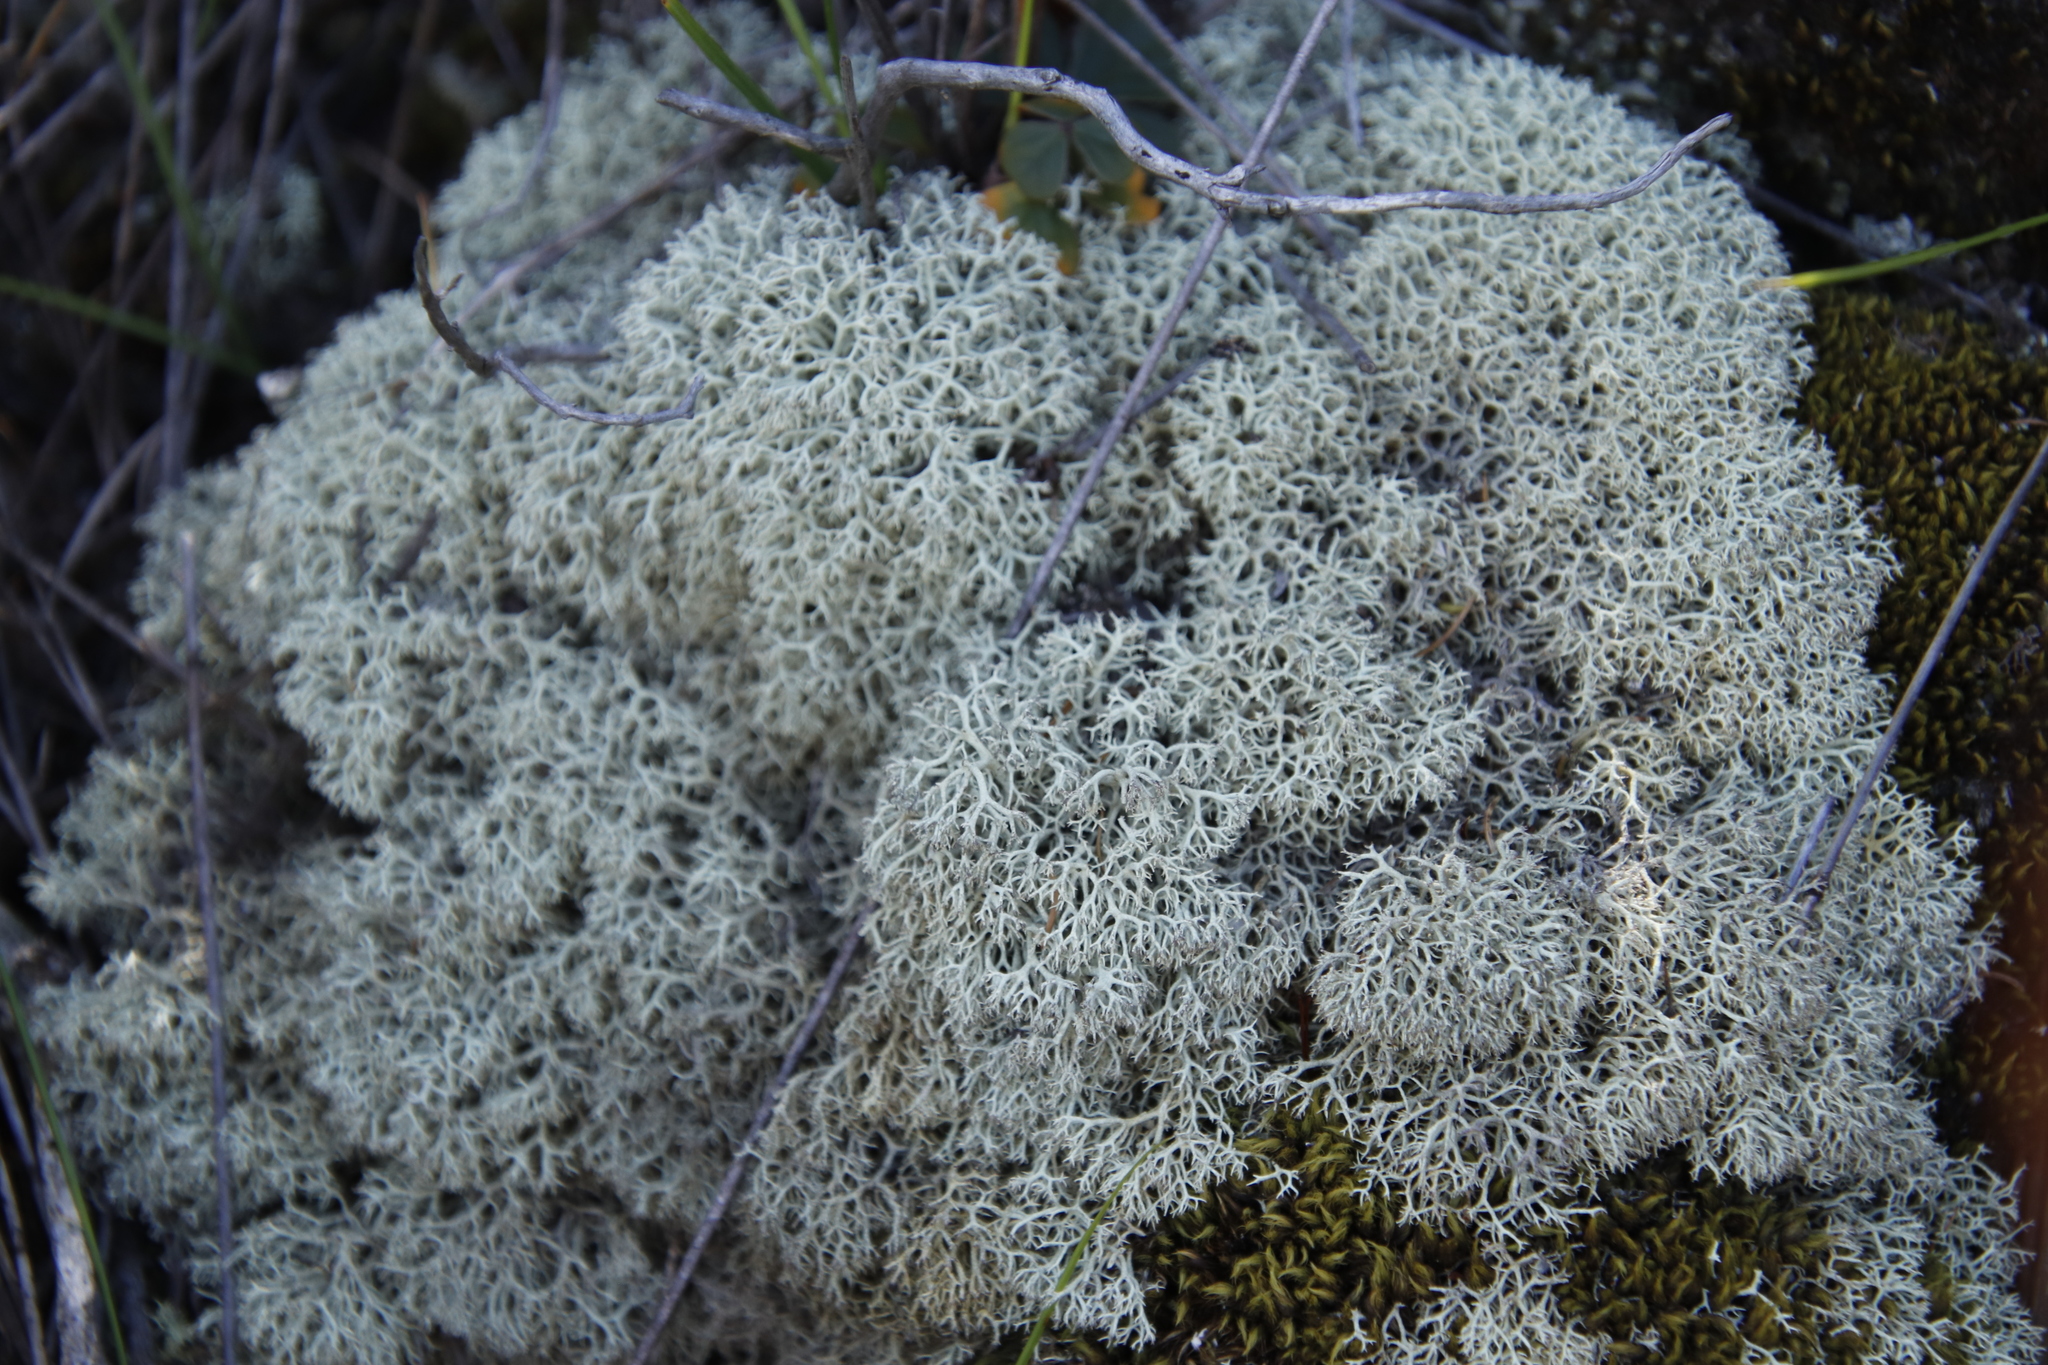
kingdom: Fungi
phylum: Ascomycota
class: Lecanoromycetes
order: Lecanorales
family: Cladoniaceae
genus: Cladonia
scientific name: Cladonia confusa
